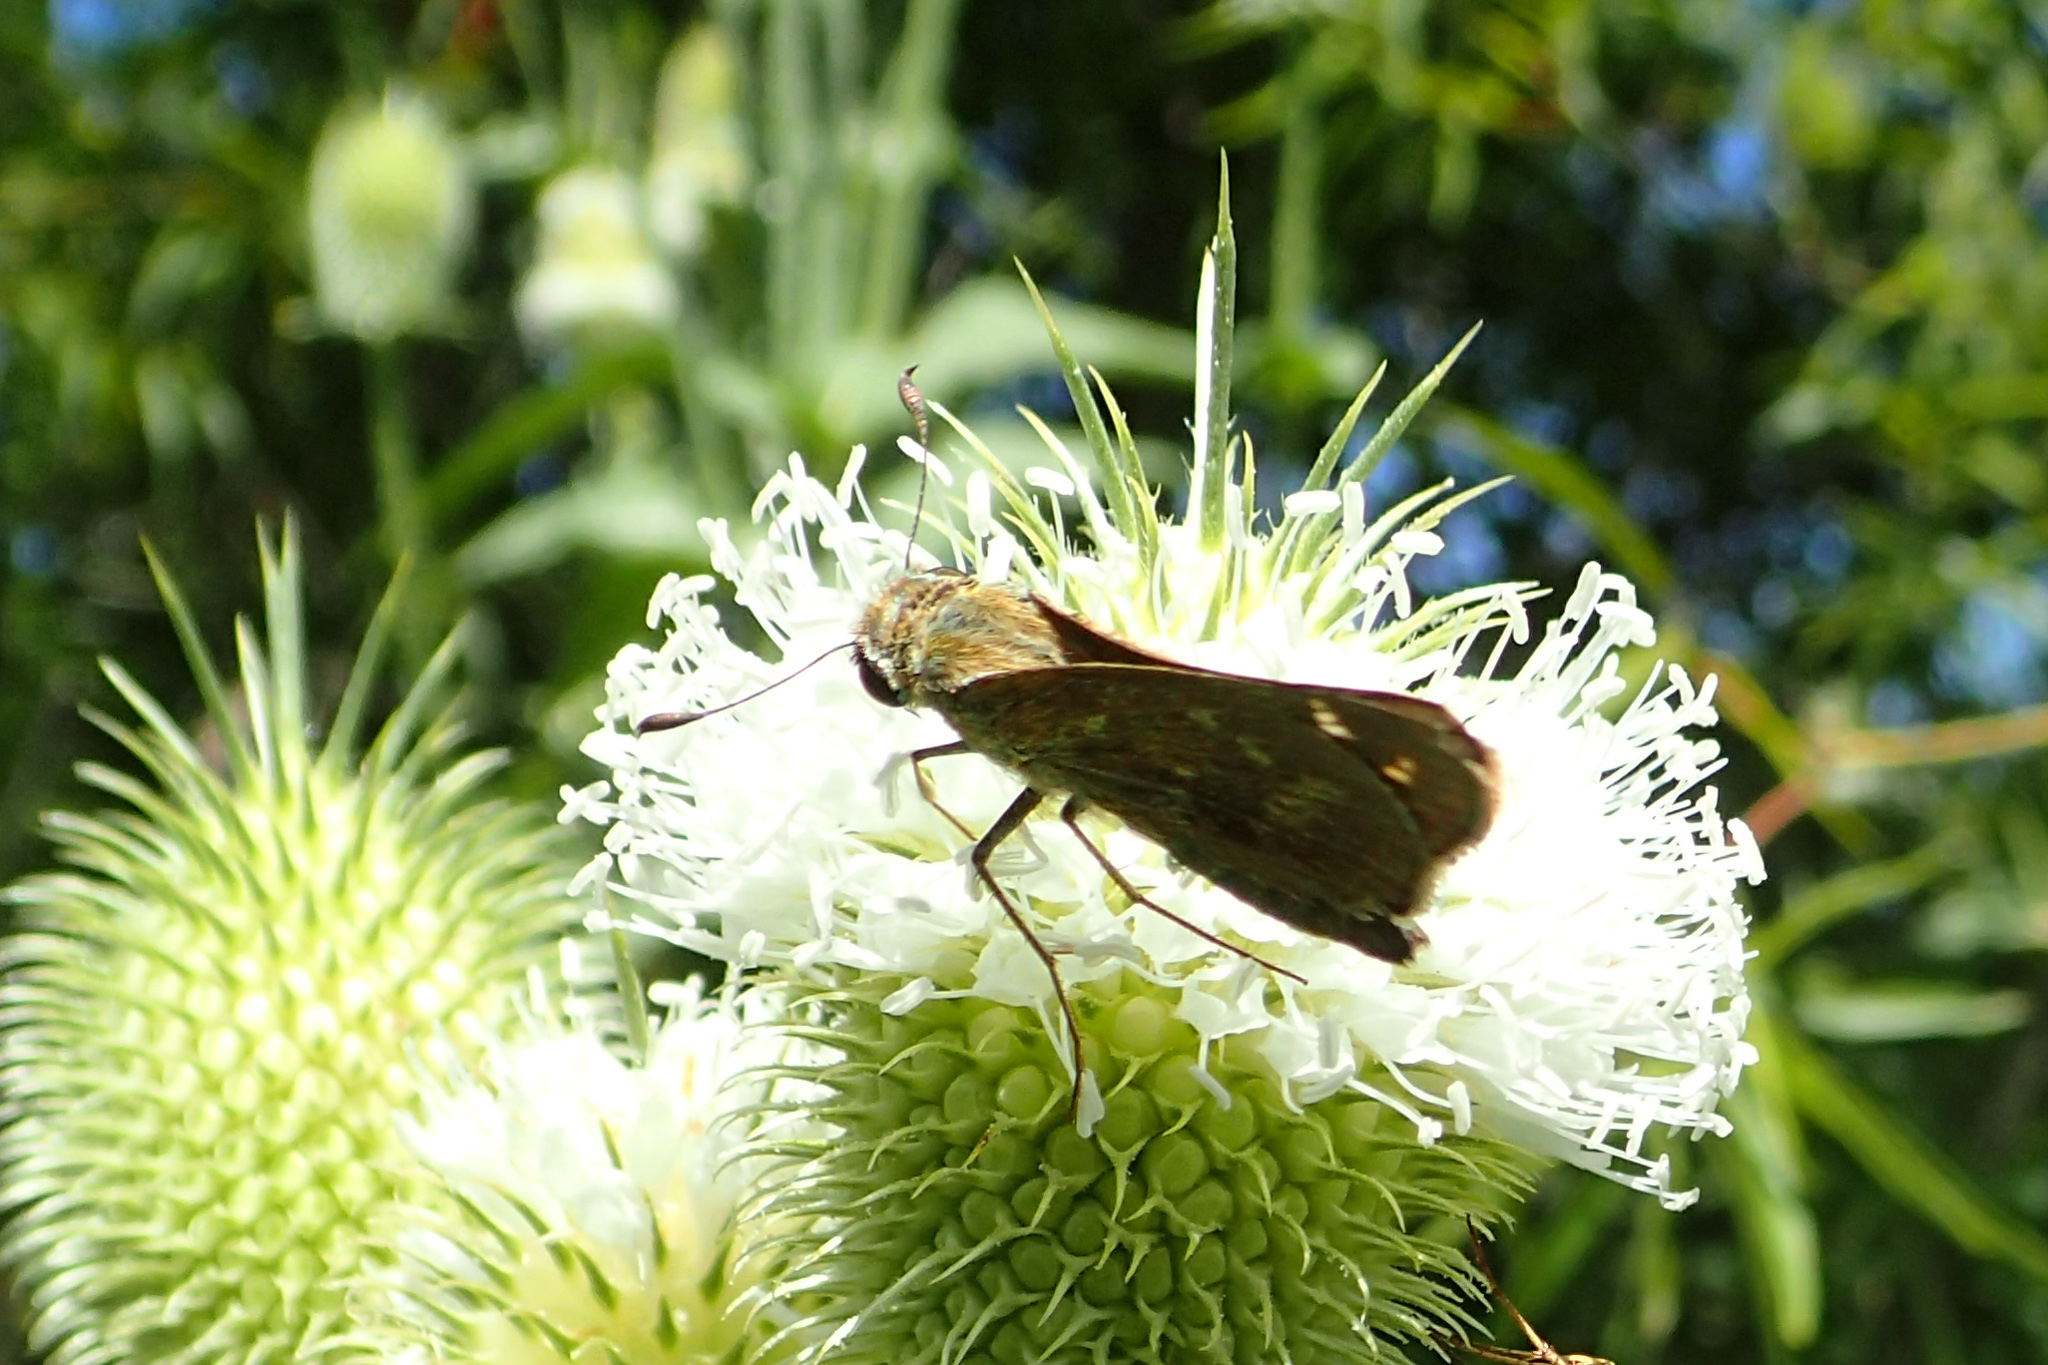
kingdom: Animalia
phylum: Arthropoda
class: Insecta
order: Lepidoptera
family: Hesperiidae
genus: Atalopedes
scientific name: Atalopedes
